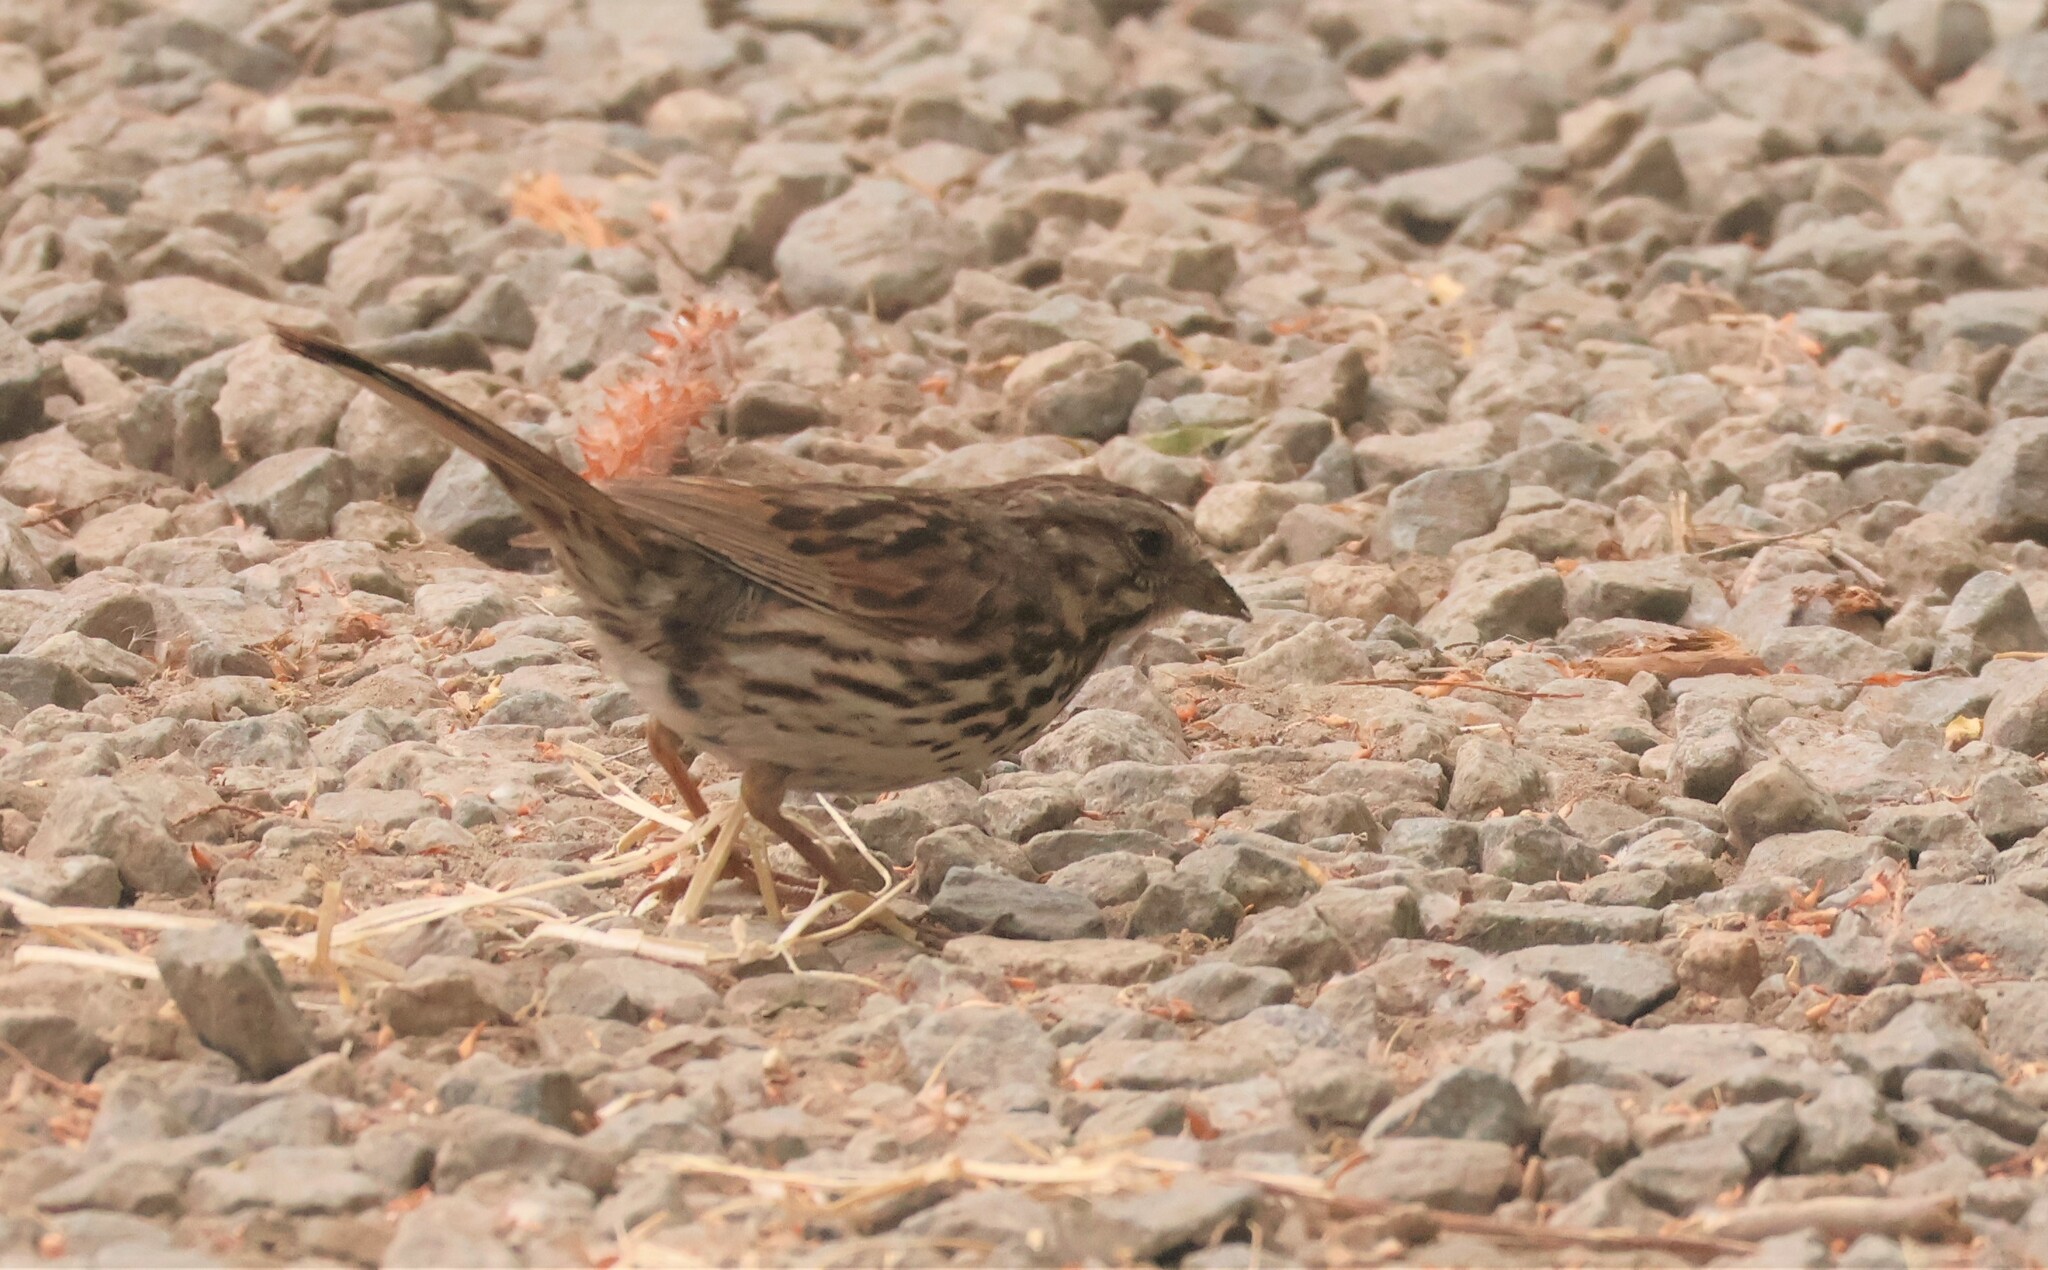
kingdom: Animalia
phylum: Chordata
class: Aves
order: Passeriformes
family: Passerellidae
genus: Melospiza
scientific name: Melospiza melodia
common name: Song sparrow
